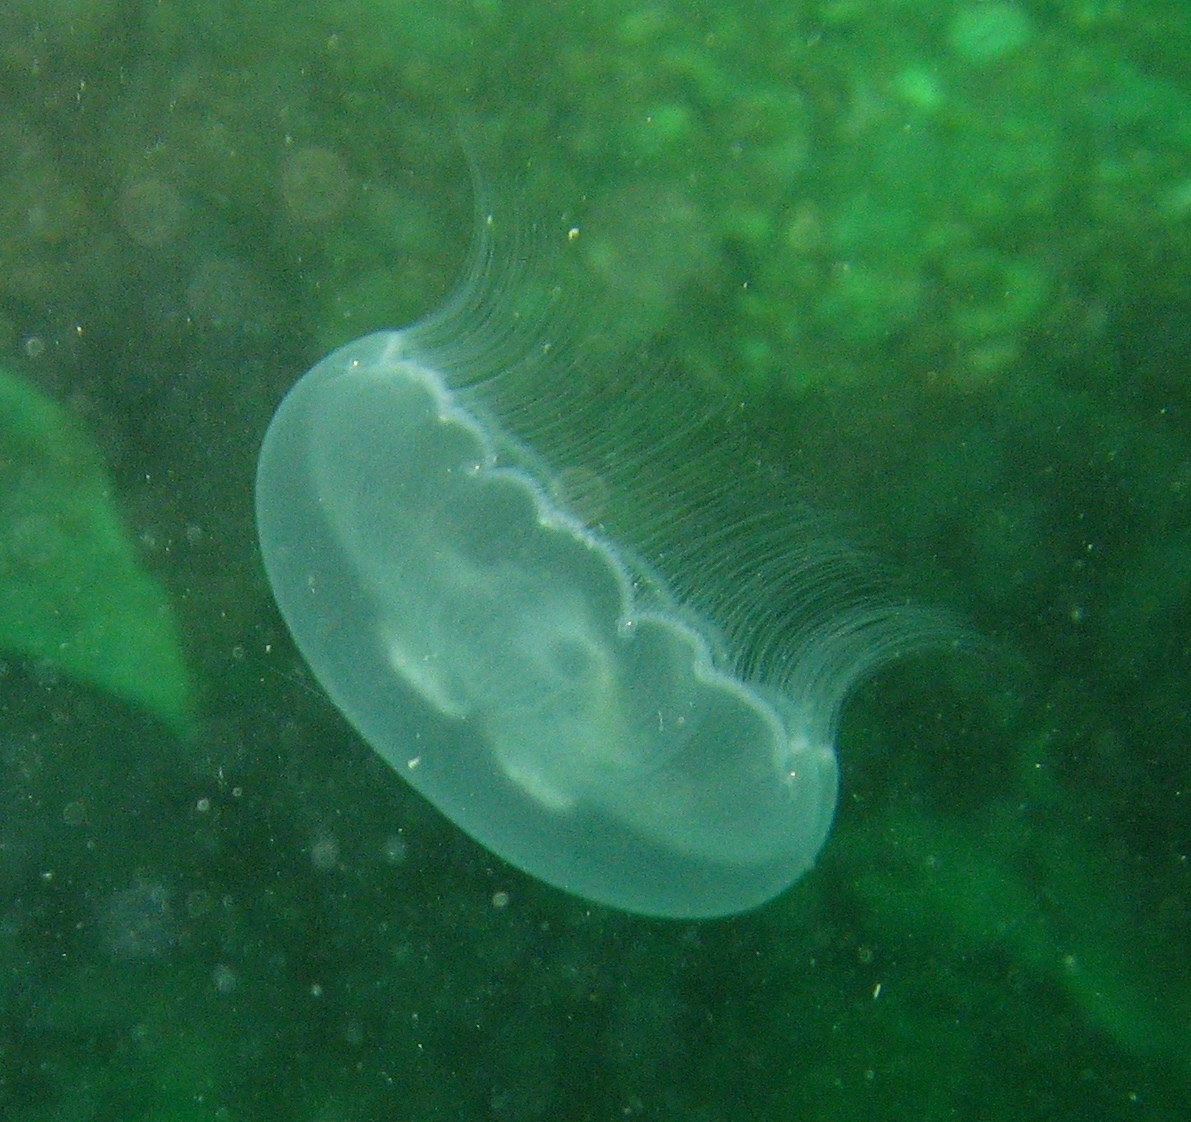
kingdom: Animalia
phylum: Cnidaria
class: Scyphozoa
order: Semaeostomeae
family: Ulmaridae
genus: Aurelia
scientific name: Aurelia labiata
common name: Pacific moon jelly
